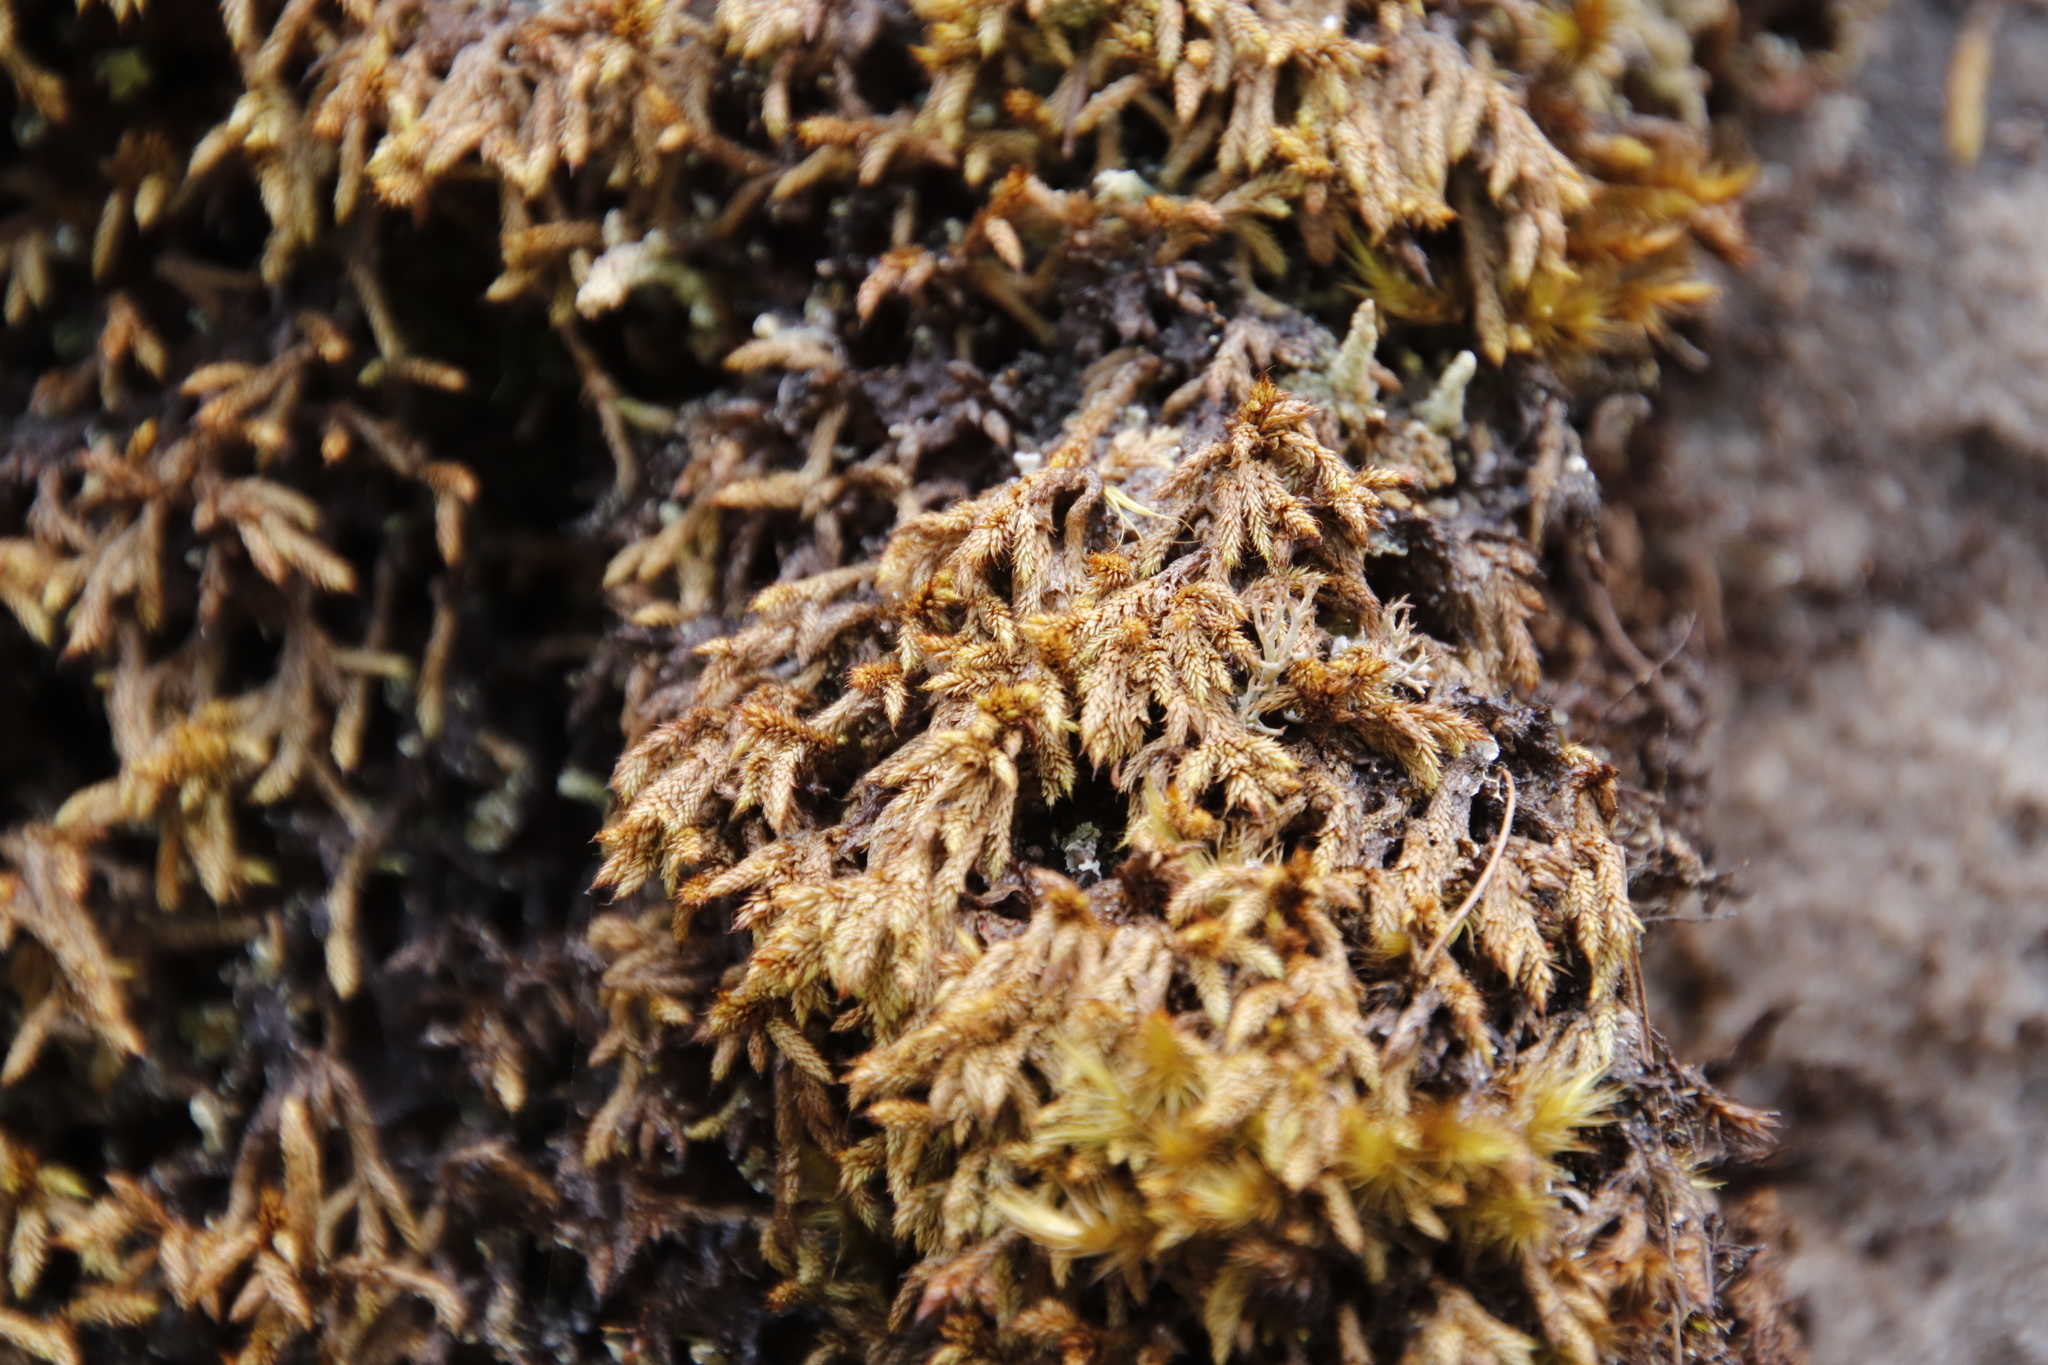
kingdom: Plantae
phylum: Bryophyta
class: Bryopsida
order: Hedwigiales
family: Hedwigiaceae
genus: Rhacocarpus
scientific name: Rhacocarpus purpurascens
